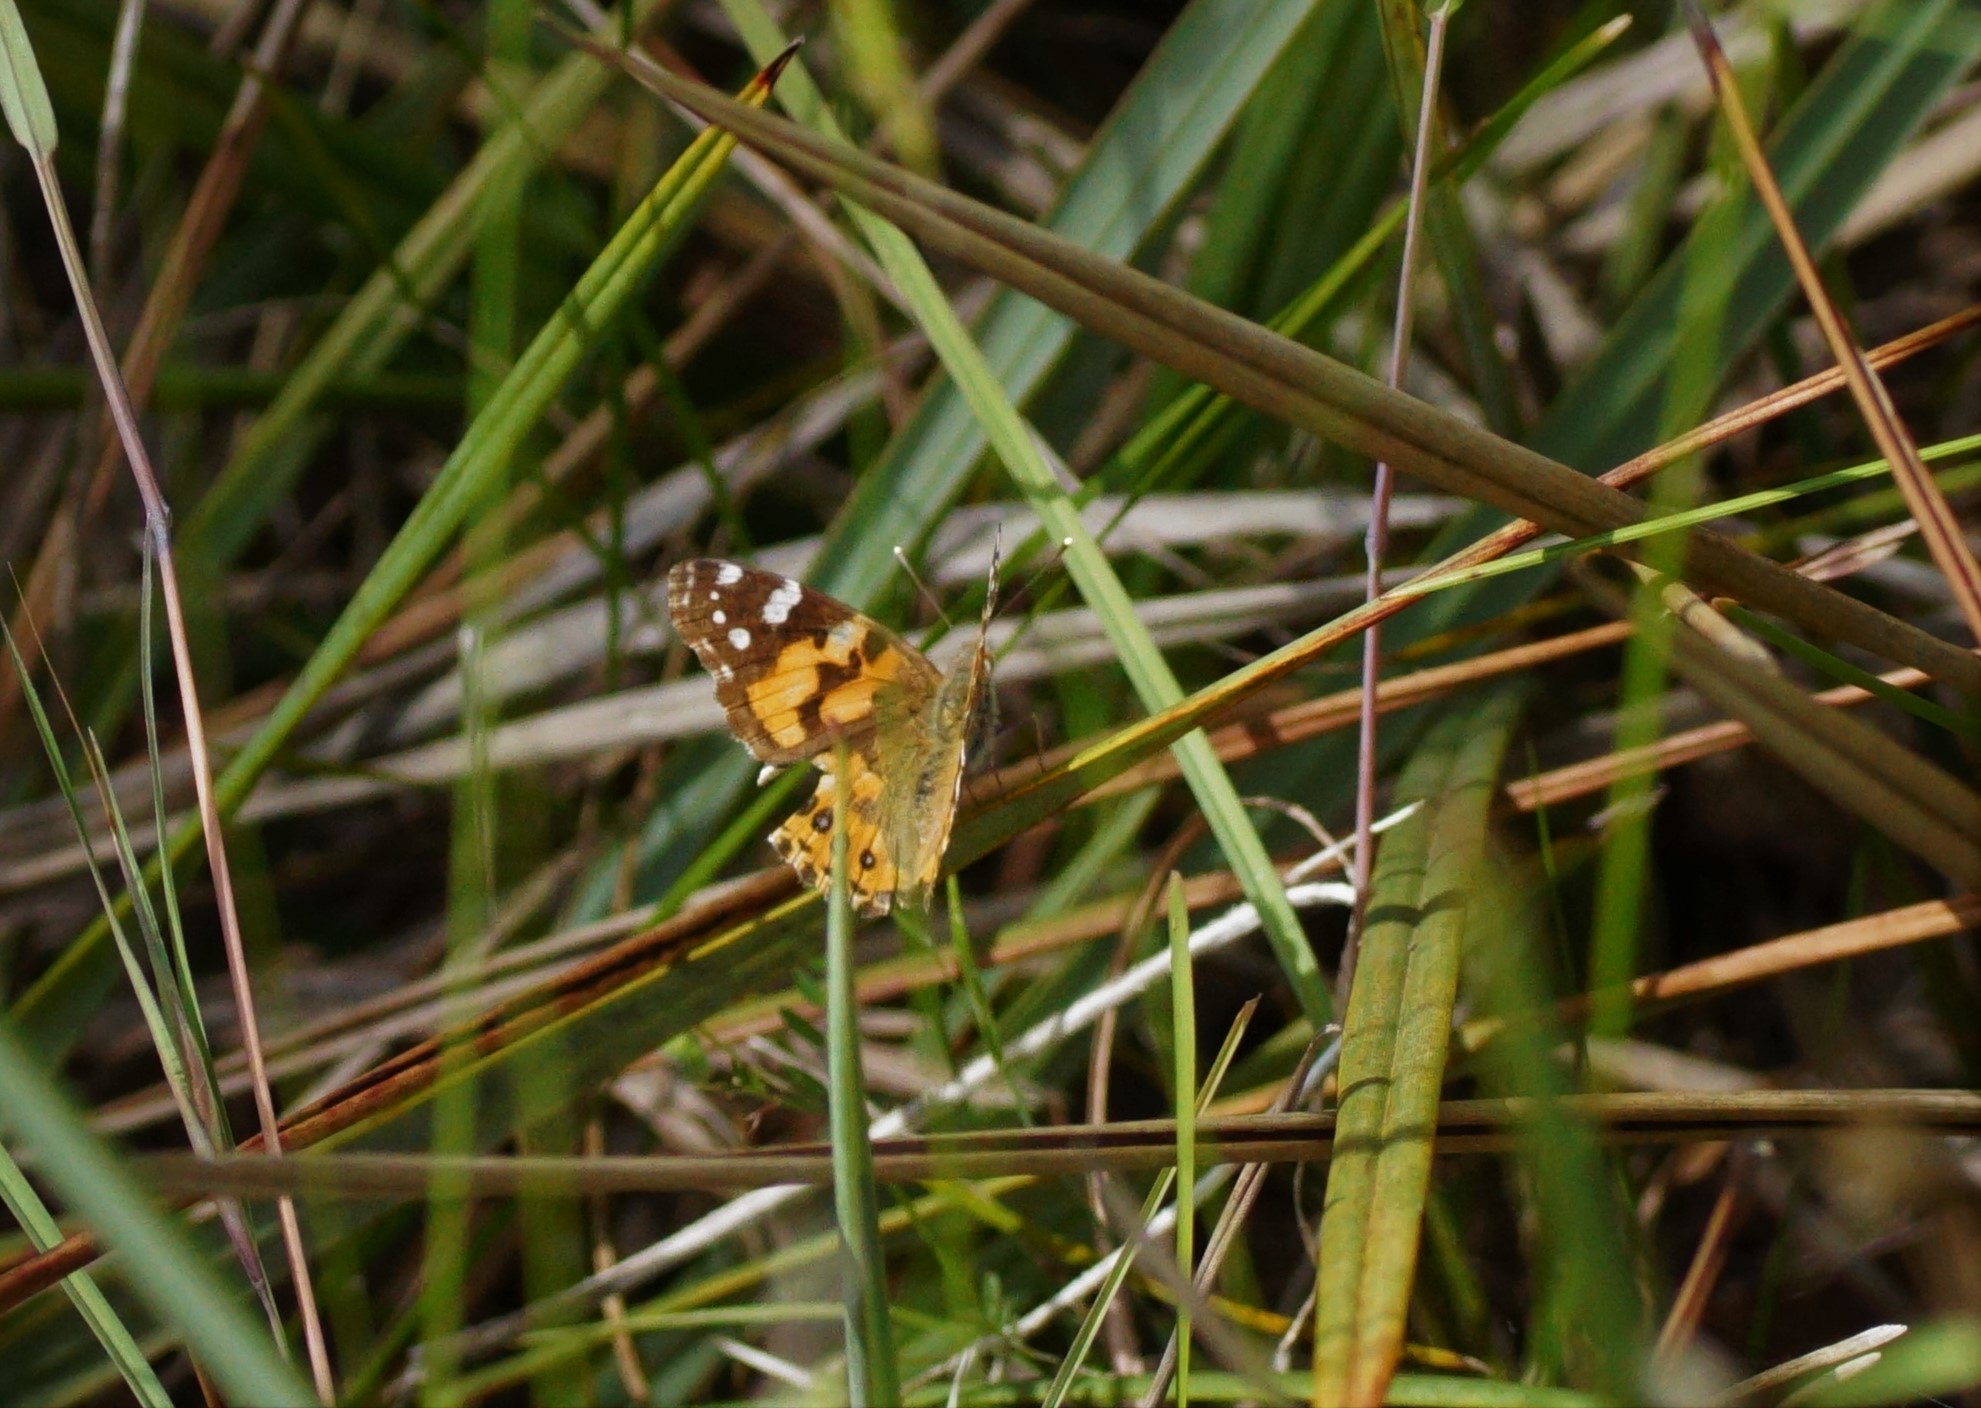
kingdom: Animalia
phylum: Arthropoda
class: Insecta
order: Lepidoptera
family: Nymphalidae
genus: Vanessa
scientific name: Vanessa kershawi
